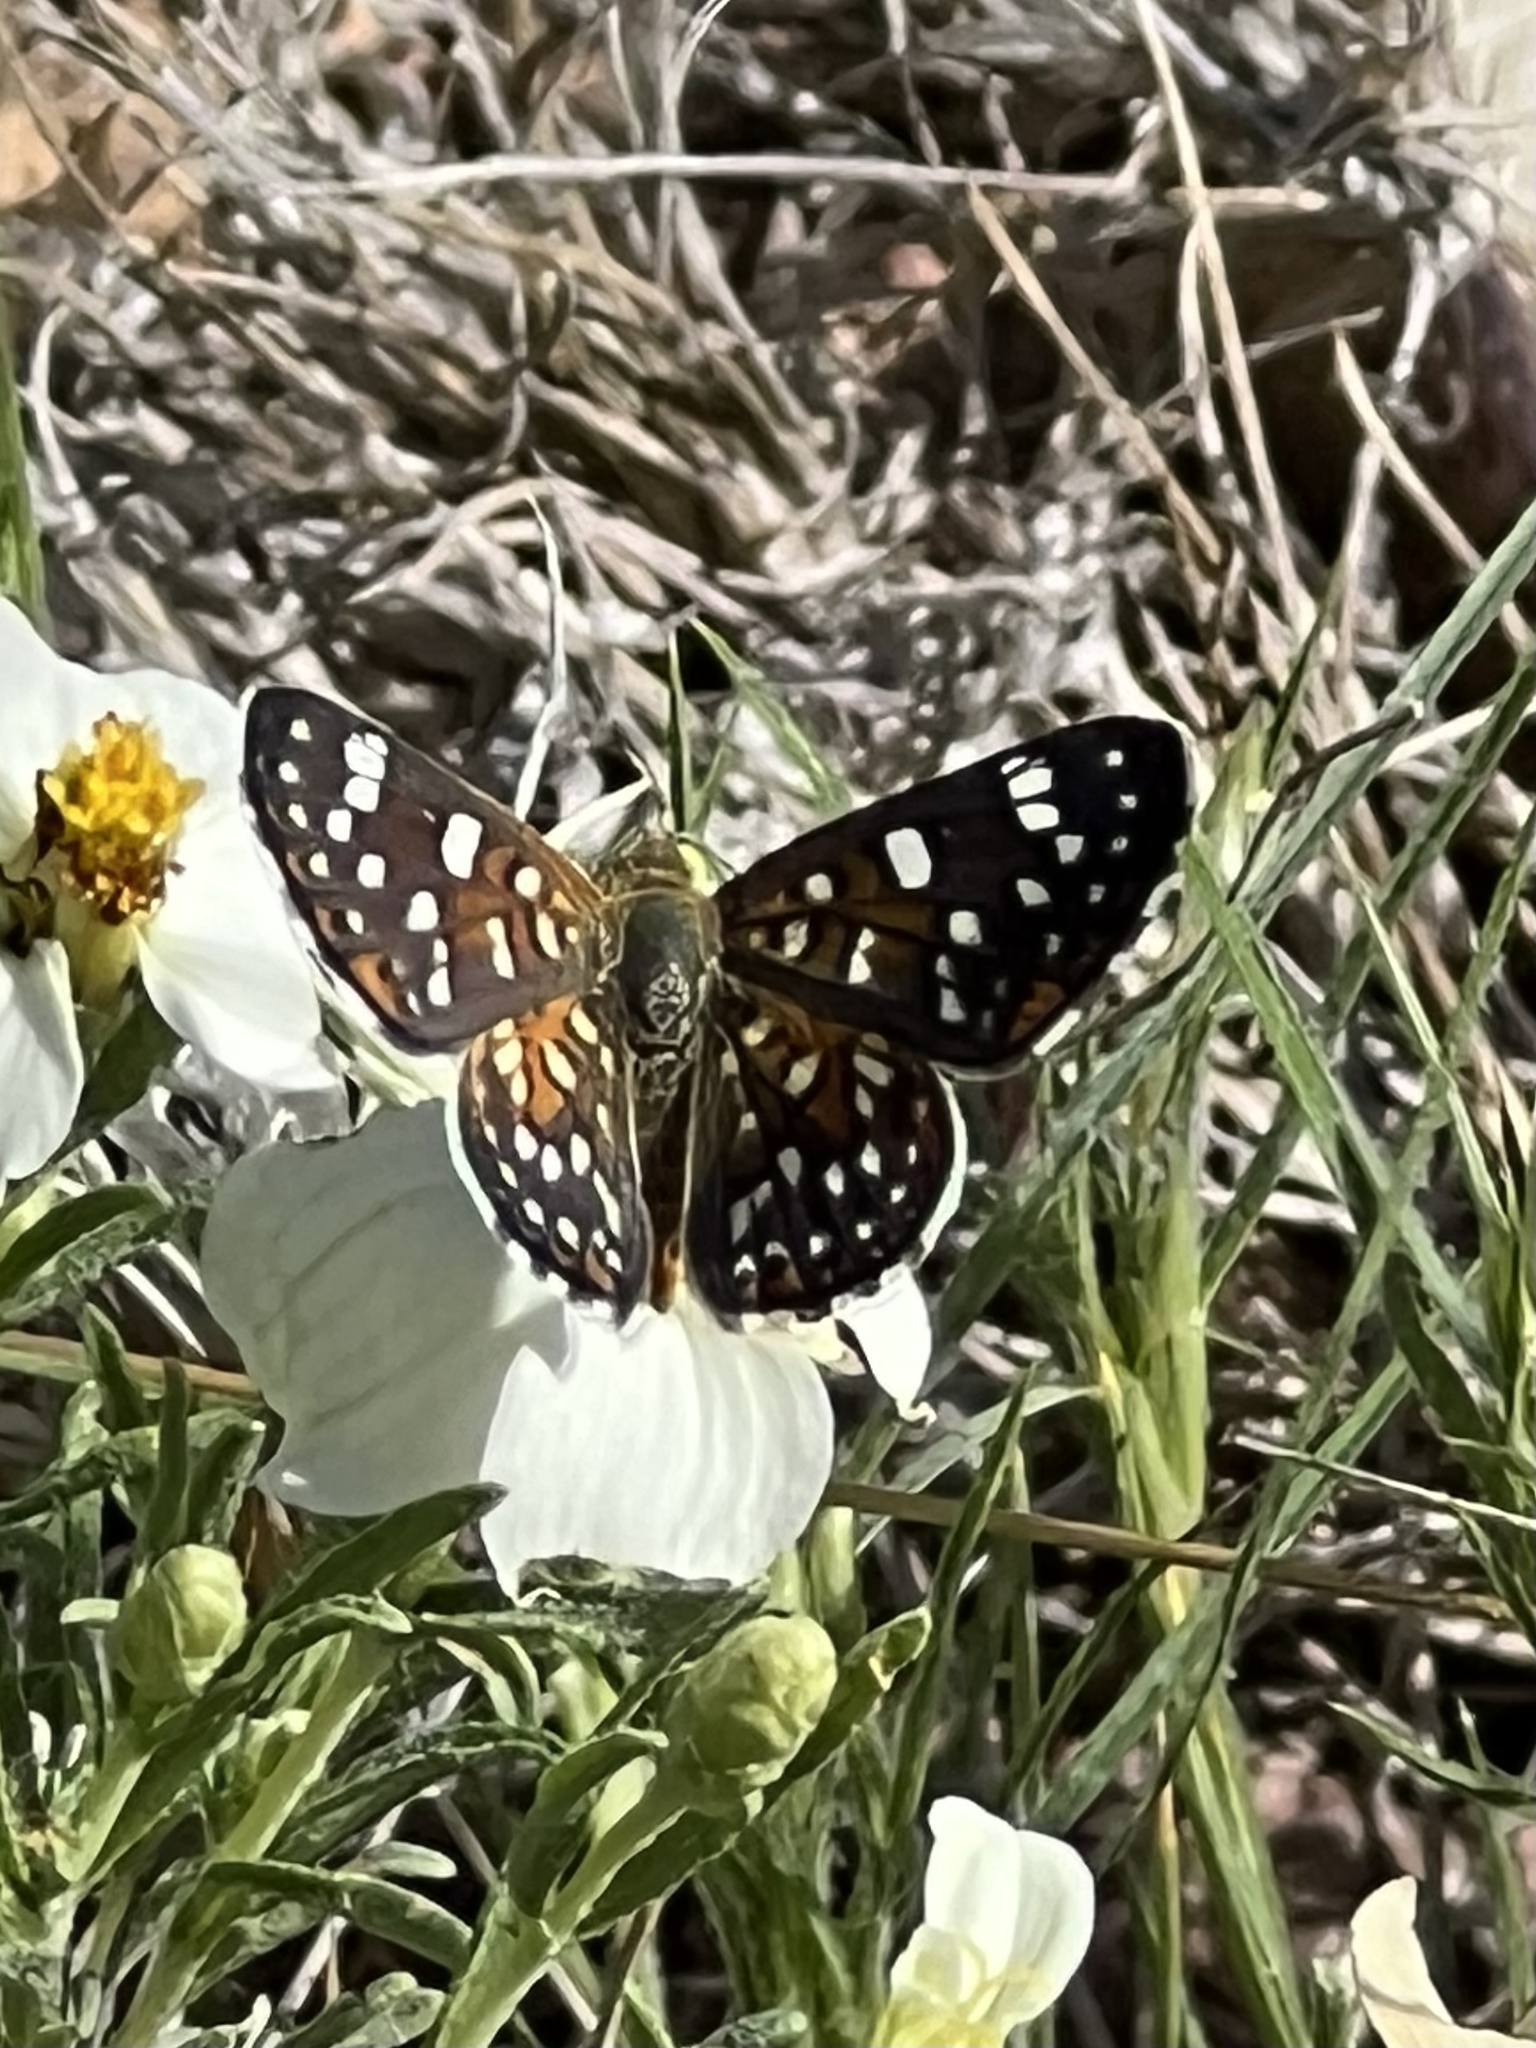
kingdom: Animalia
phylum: Arthropoda
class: Insecta
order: Lepidoptera
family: Riodinidae
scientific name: Riodinidae
